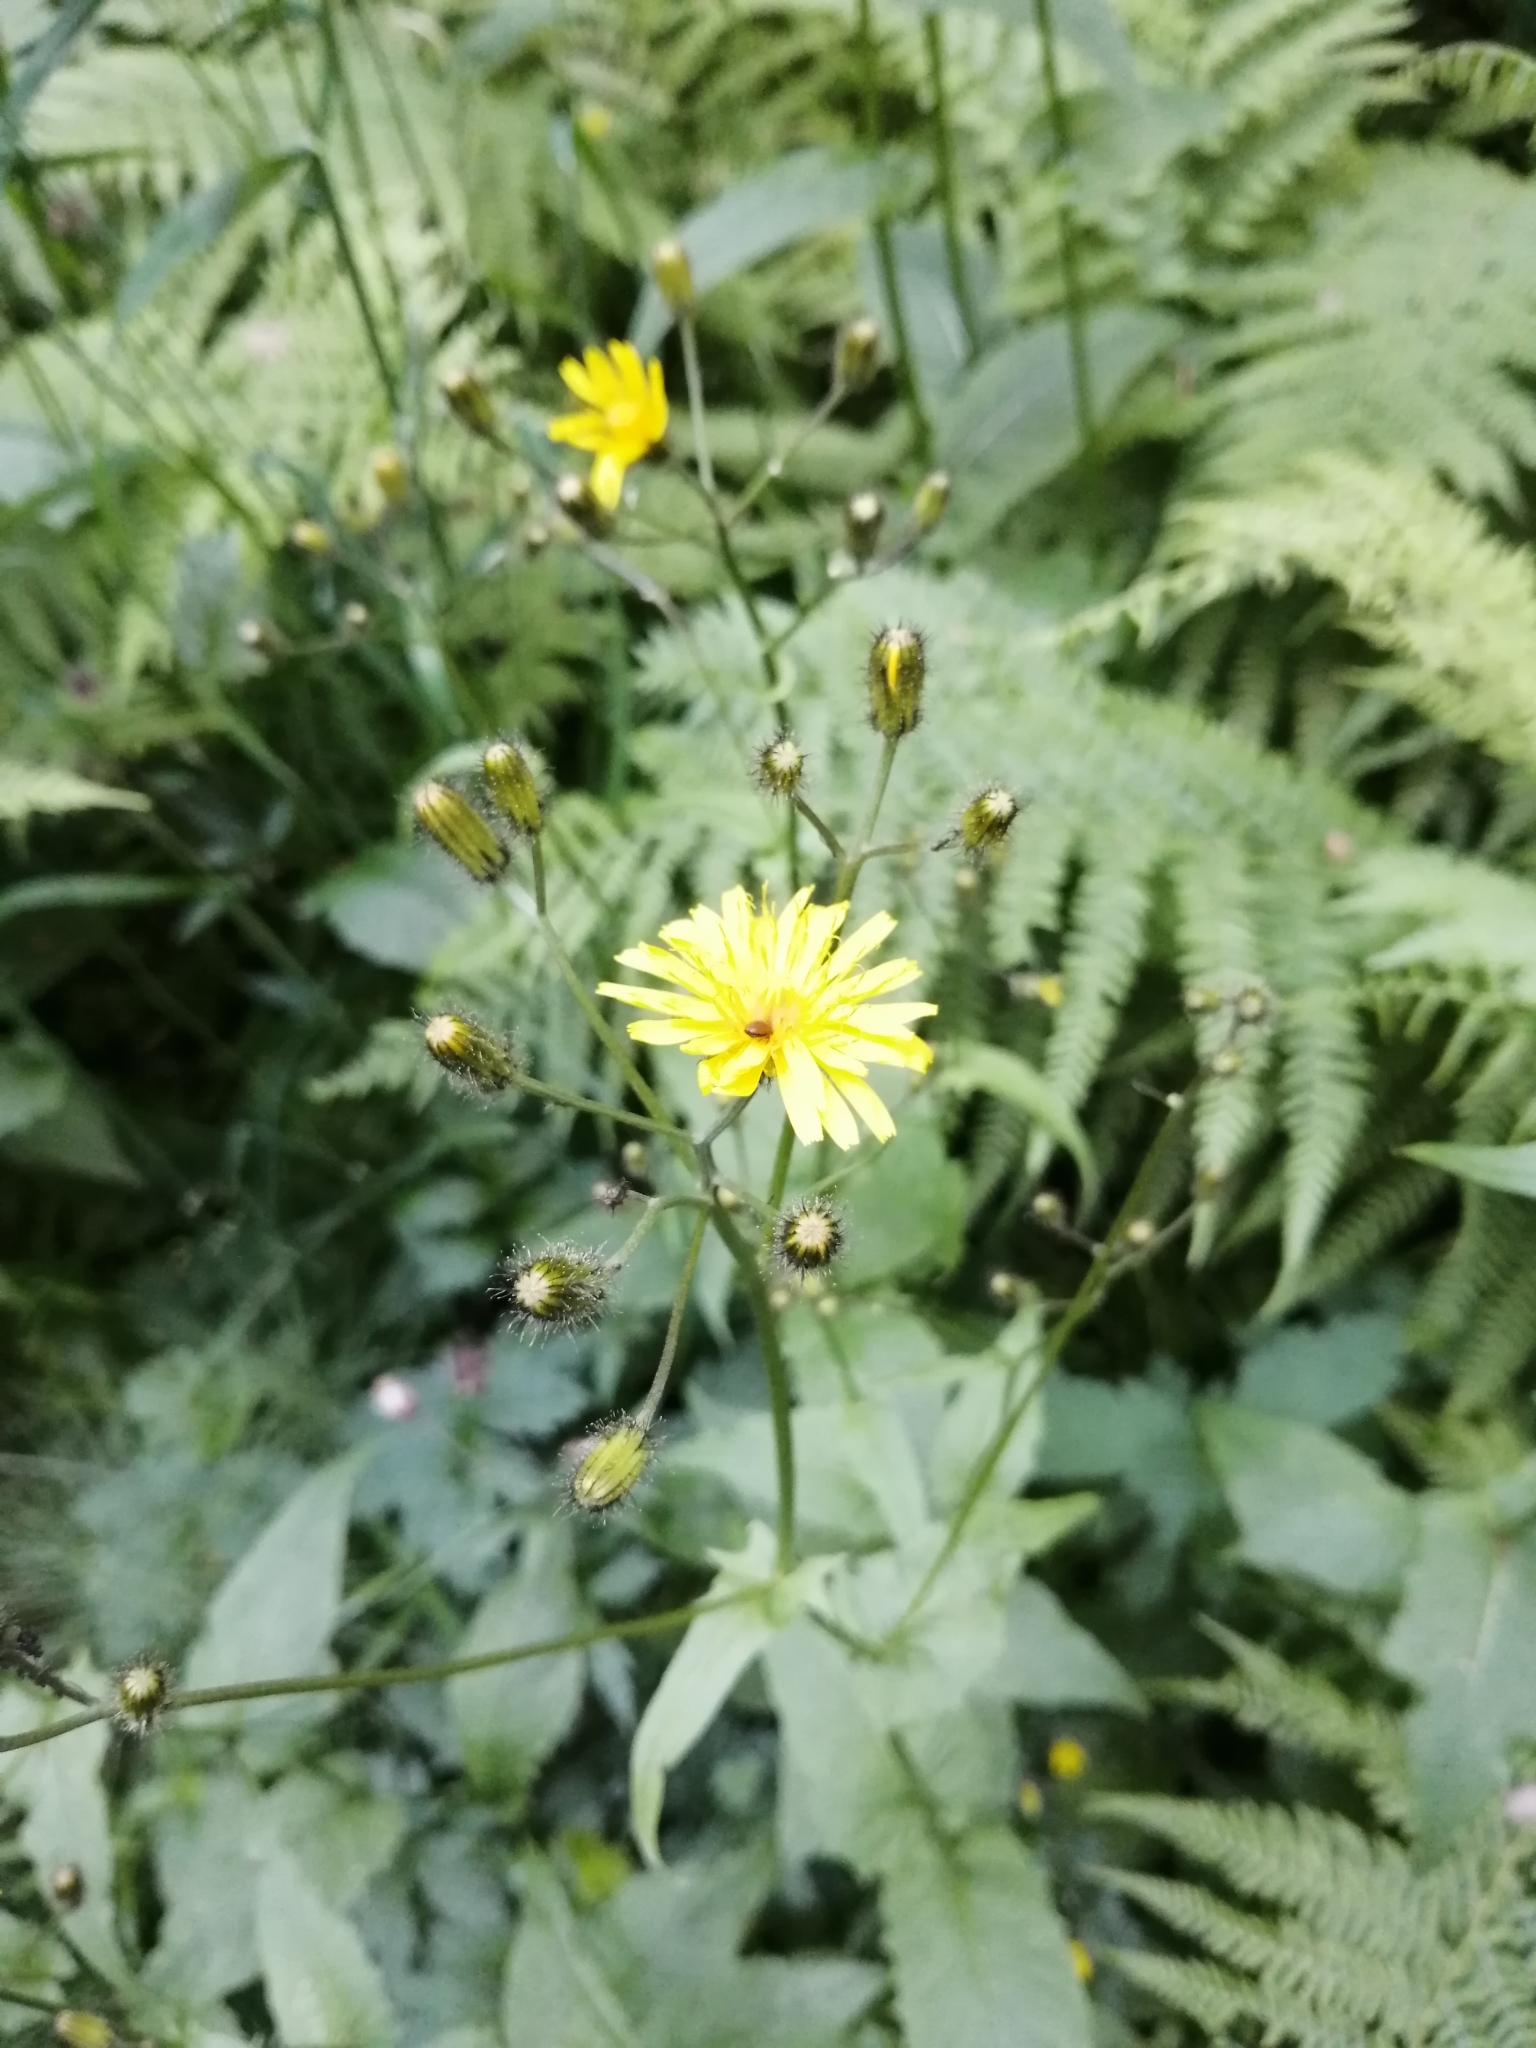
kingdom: Plantae
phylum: Tracheophyta
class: Magnoliopsida
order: Asterales
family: Asteraceae
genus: Crepis
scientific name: Crepis paludosa
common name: Marsh hawk's-beard
